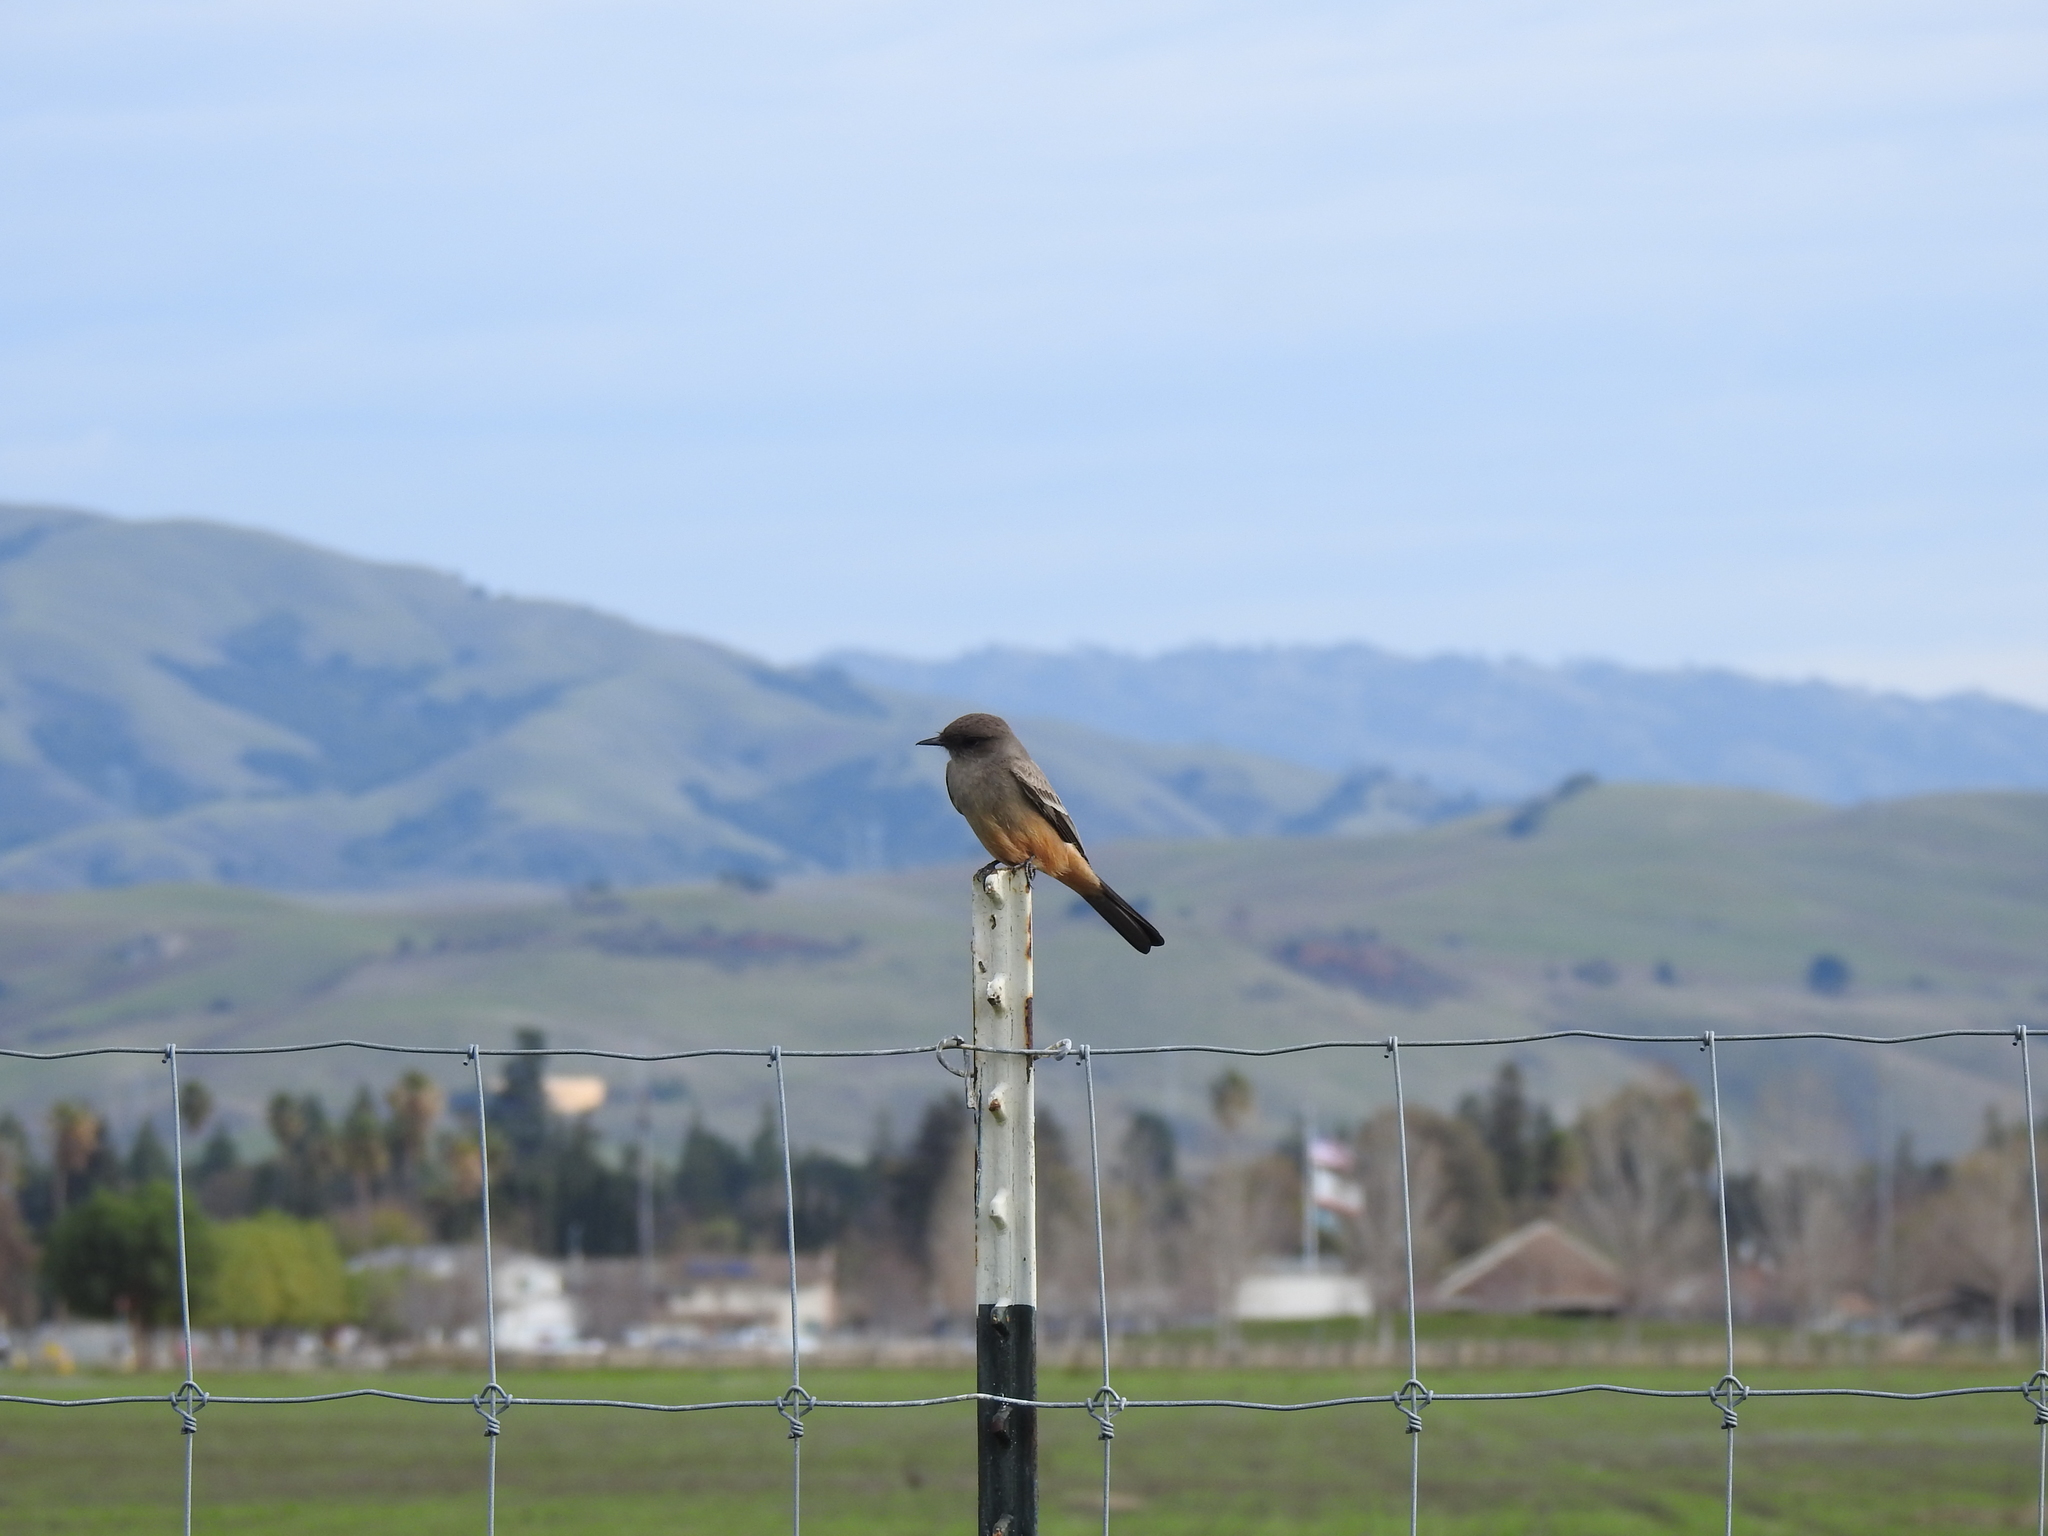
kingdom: Animalia
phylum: Chordata
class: Aves
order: Passeriformes
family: Tyrannidae
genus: Sayornis
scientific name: Sayornis saya
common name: Say's phoebe
